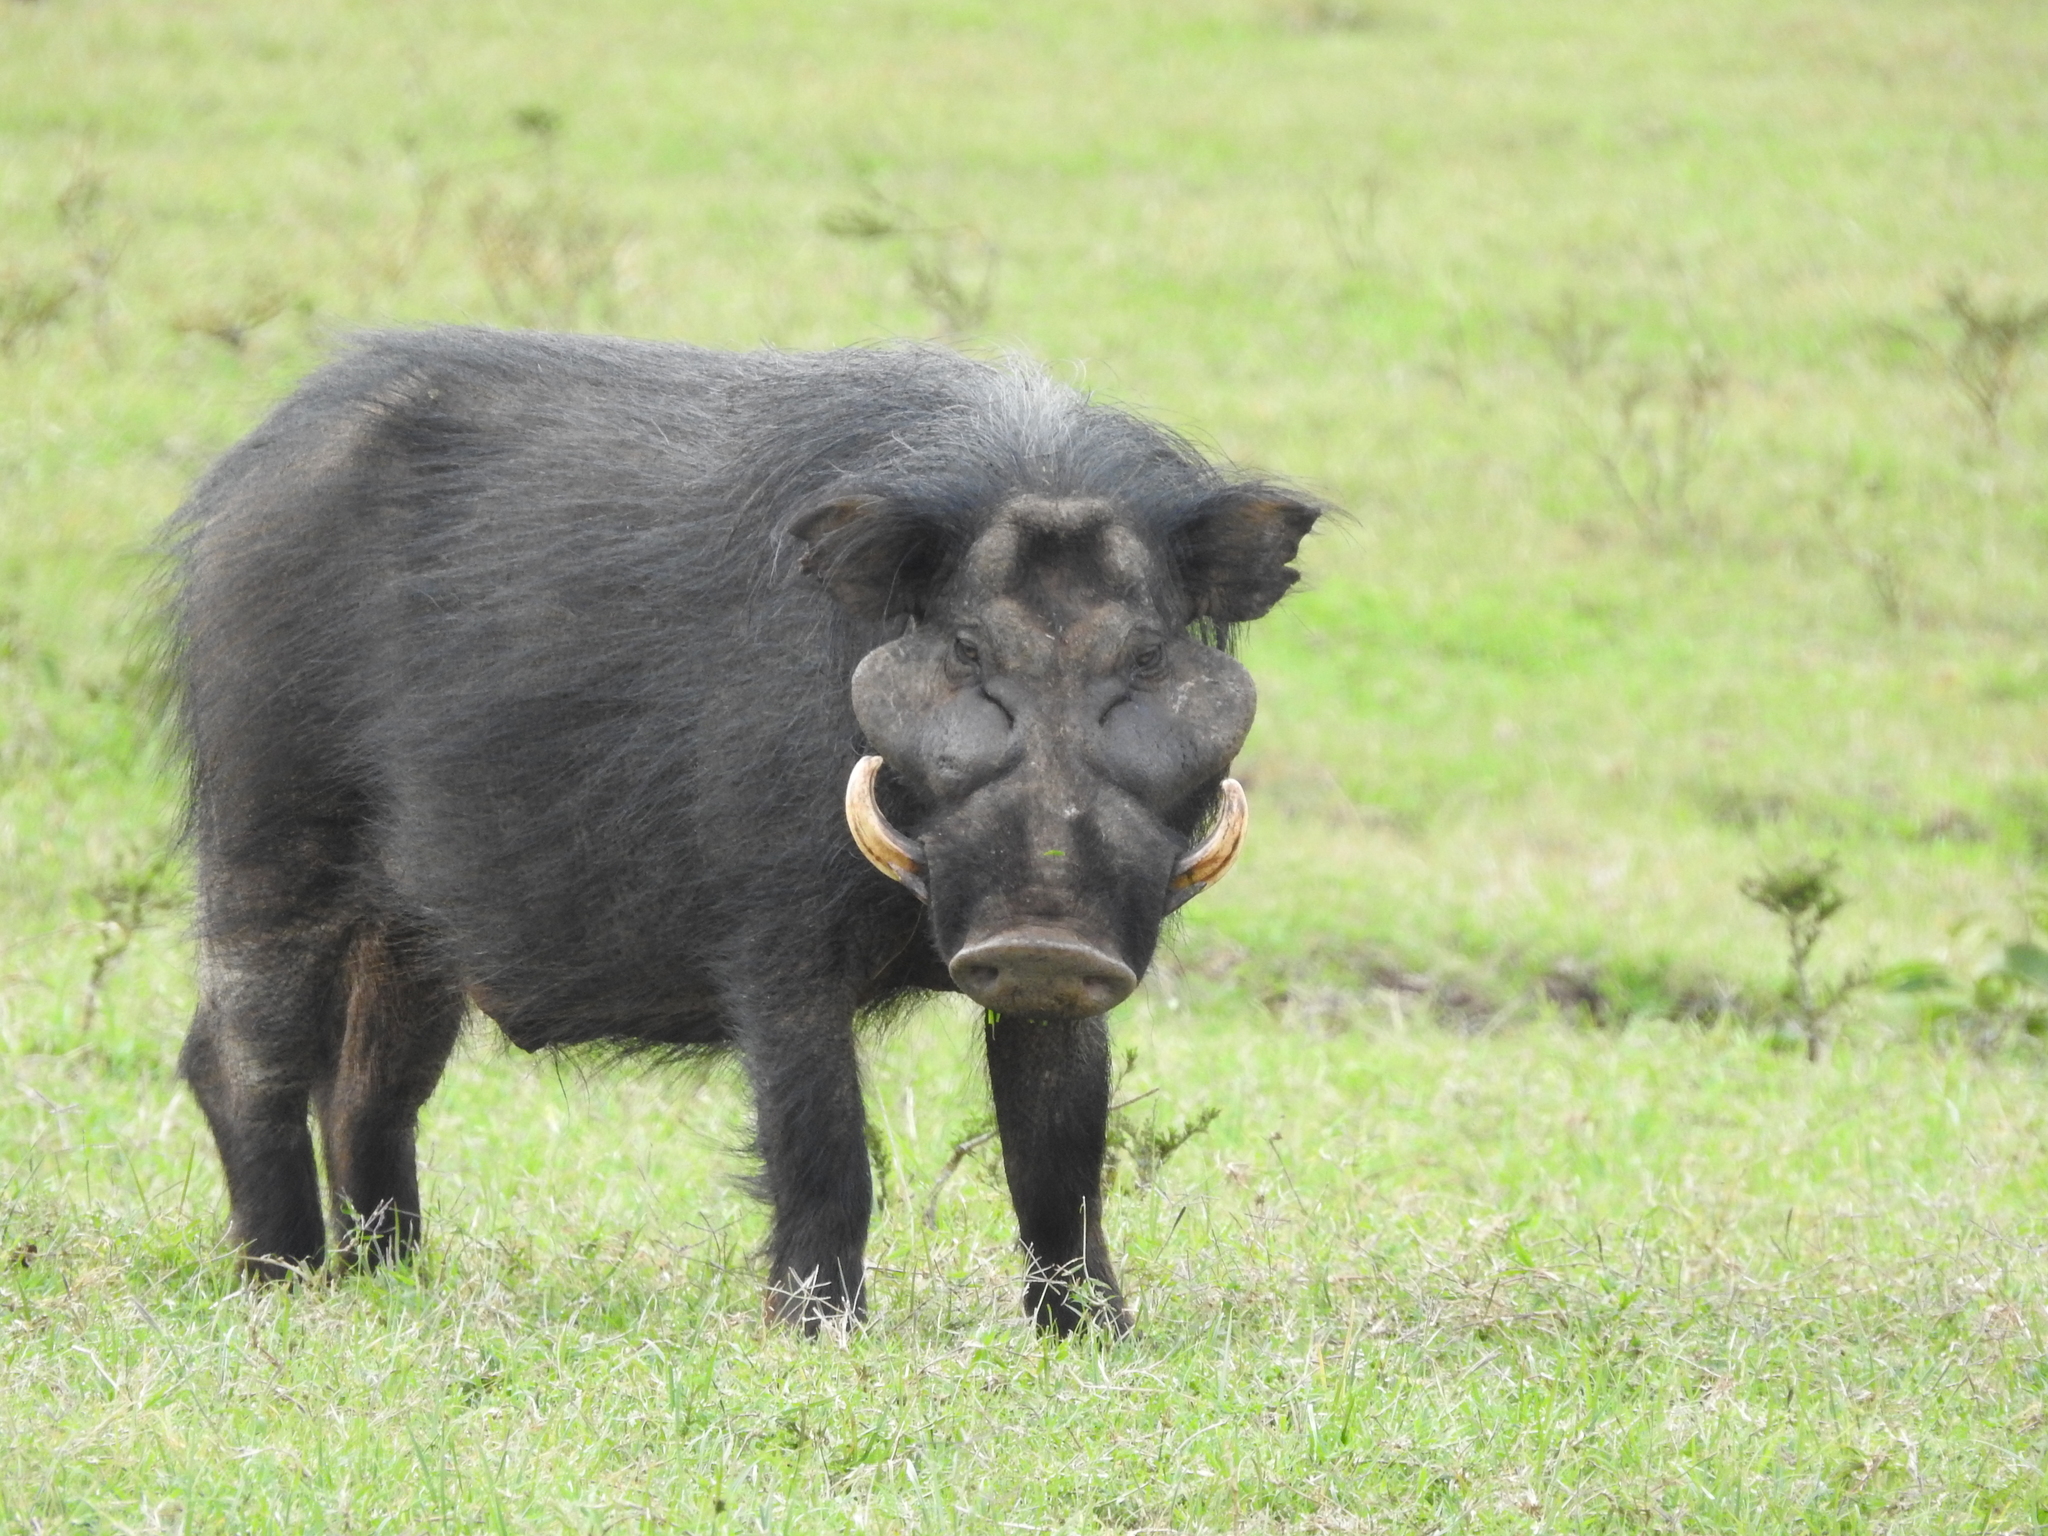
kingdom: Animalia
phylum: Chordata
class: Mammalia
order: Artiodactyla
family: Suidae
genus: Hylochoerus
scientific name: Hylochoerus meinertzhageni
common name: Giant forest hog
